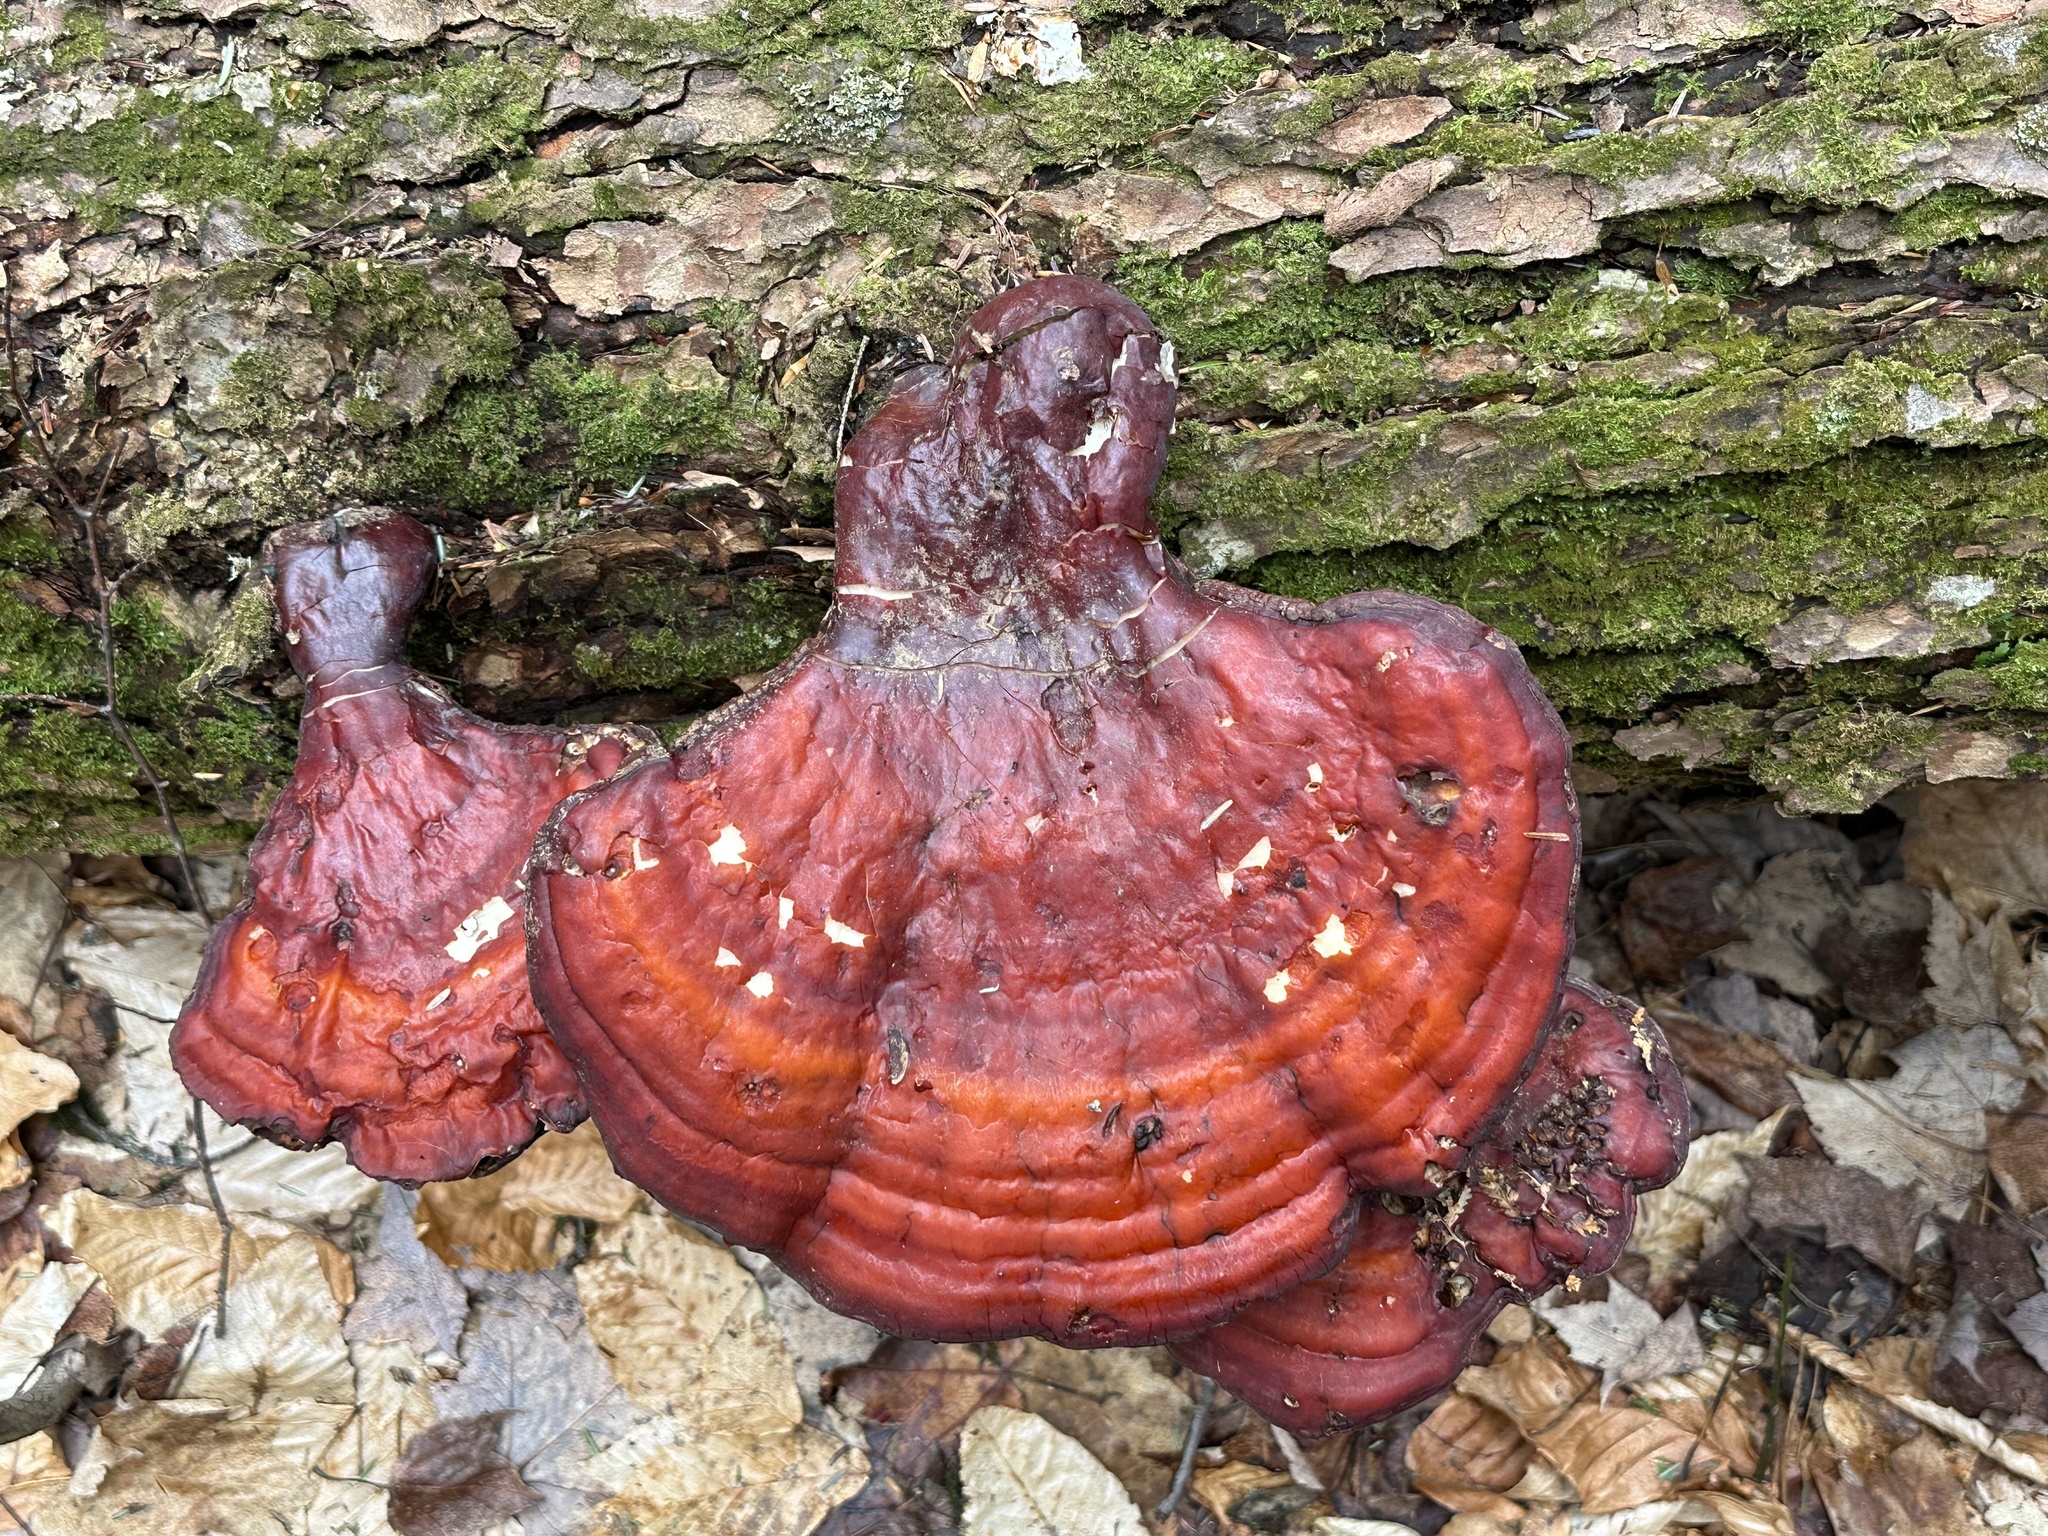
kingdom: Fungi
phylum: Basidiomycota
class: Agaricomycetes
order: Polyporales
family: Polyporaceae
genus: Ganoderma
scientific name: Ganoderma tsugae
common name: Hemlock varnish shelf
